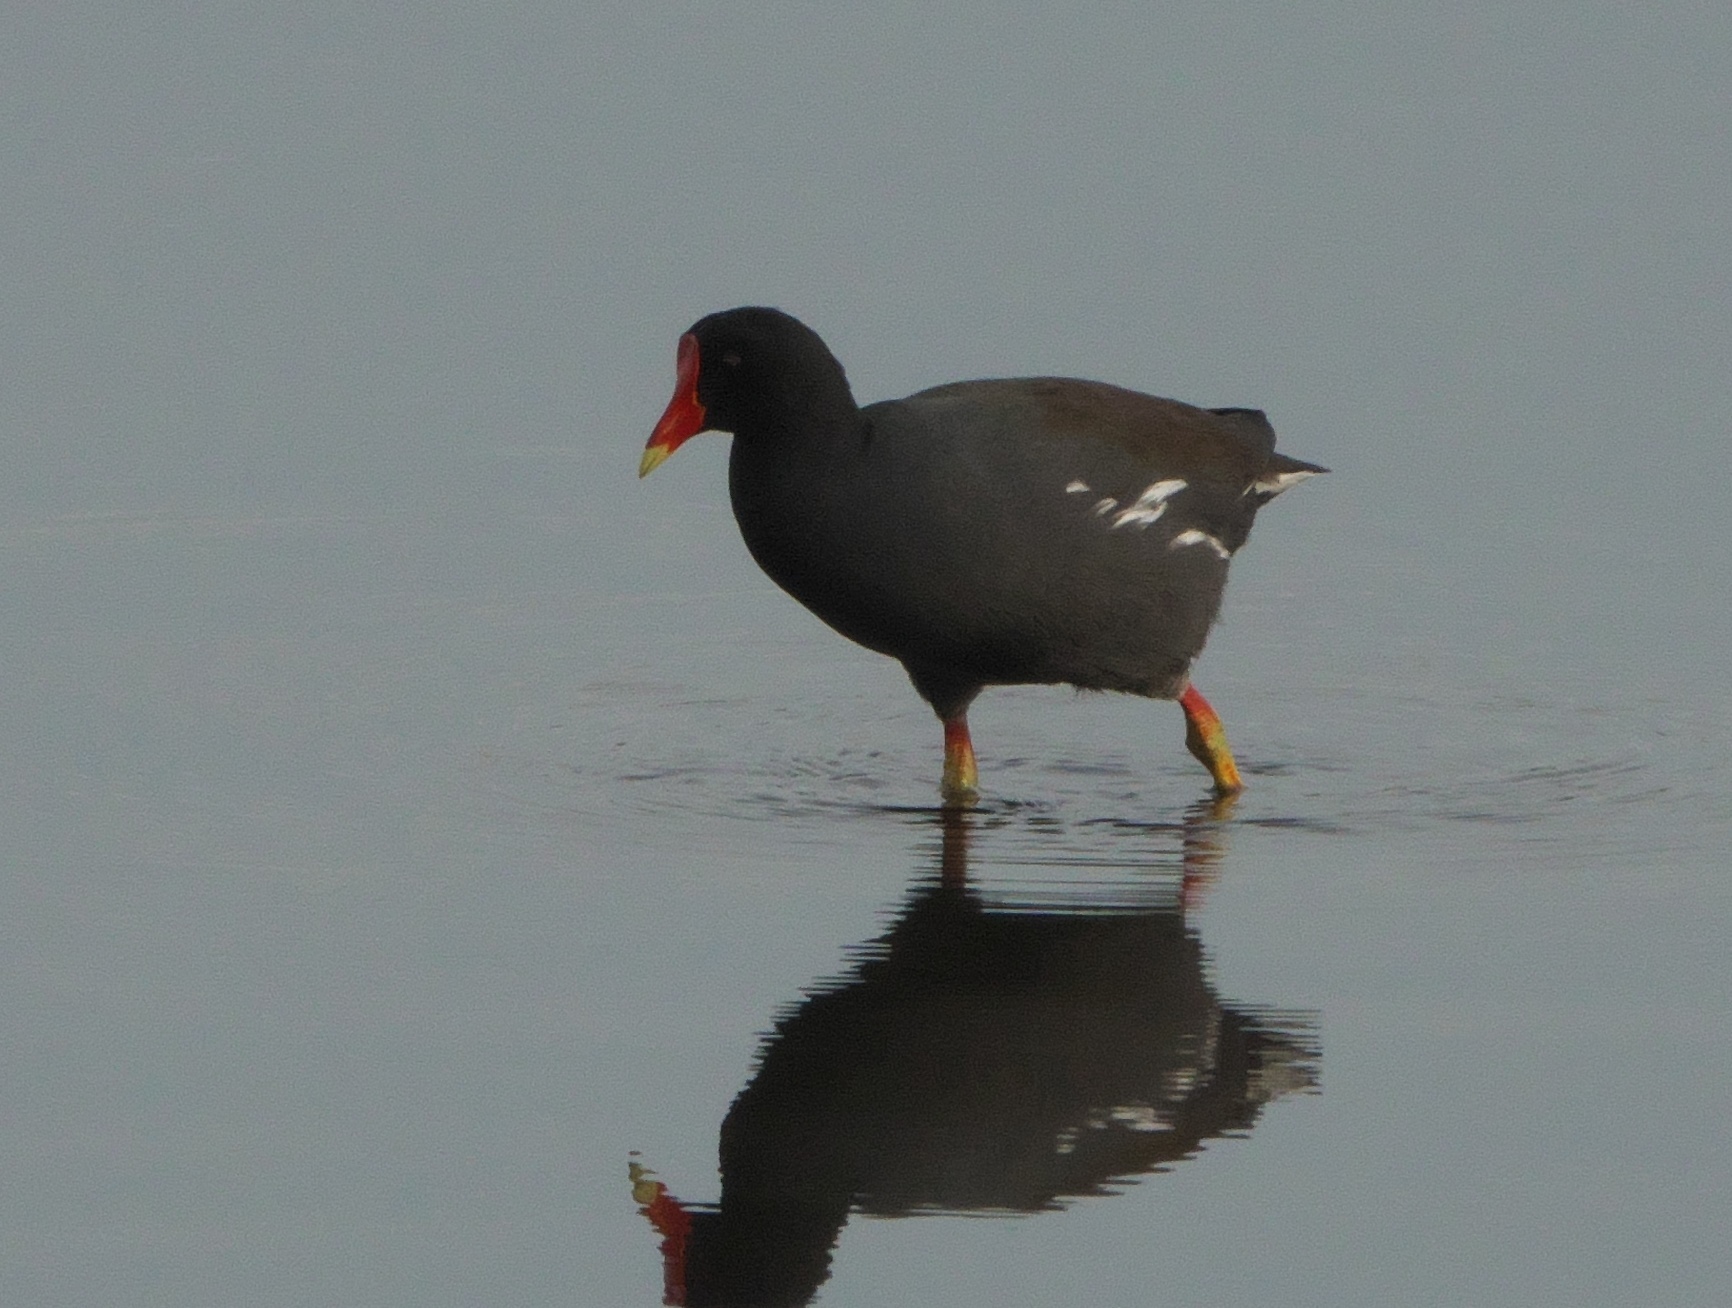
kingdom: Animalia
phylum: Chordata
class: Aves
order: Gruiformes
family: Rallidae
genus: Gallinula
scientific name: Gallinula chloropus
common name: Common moorhen
